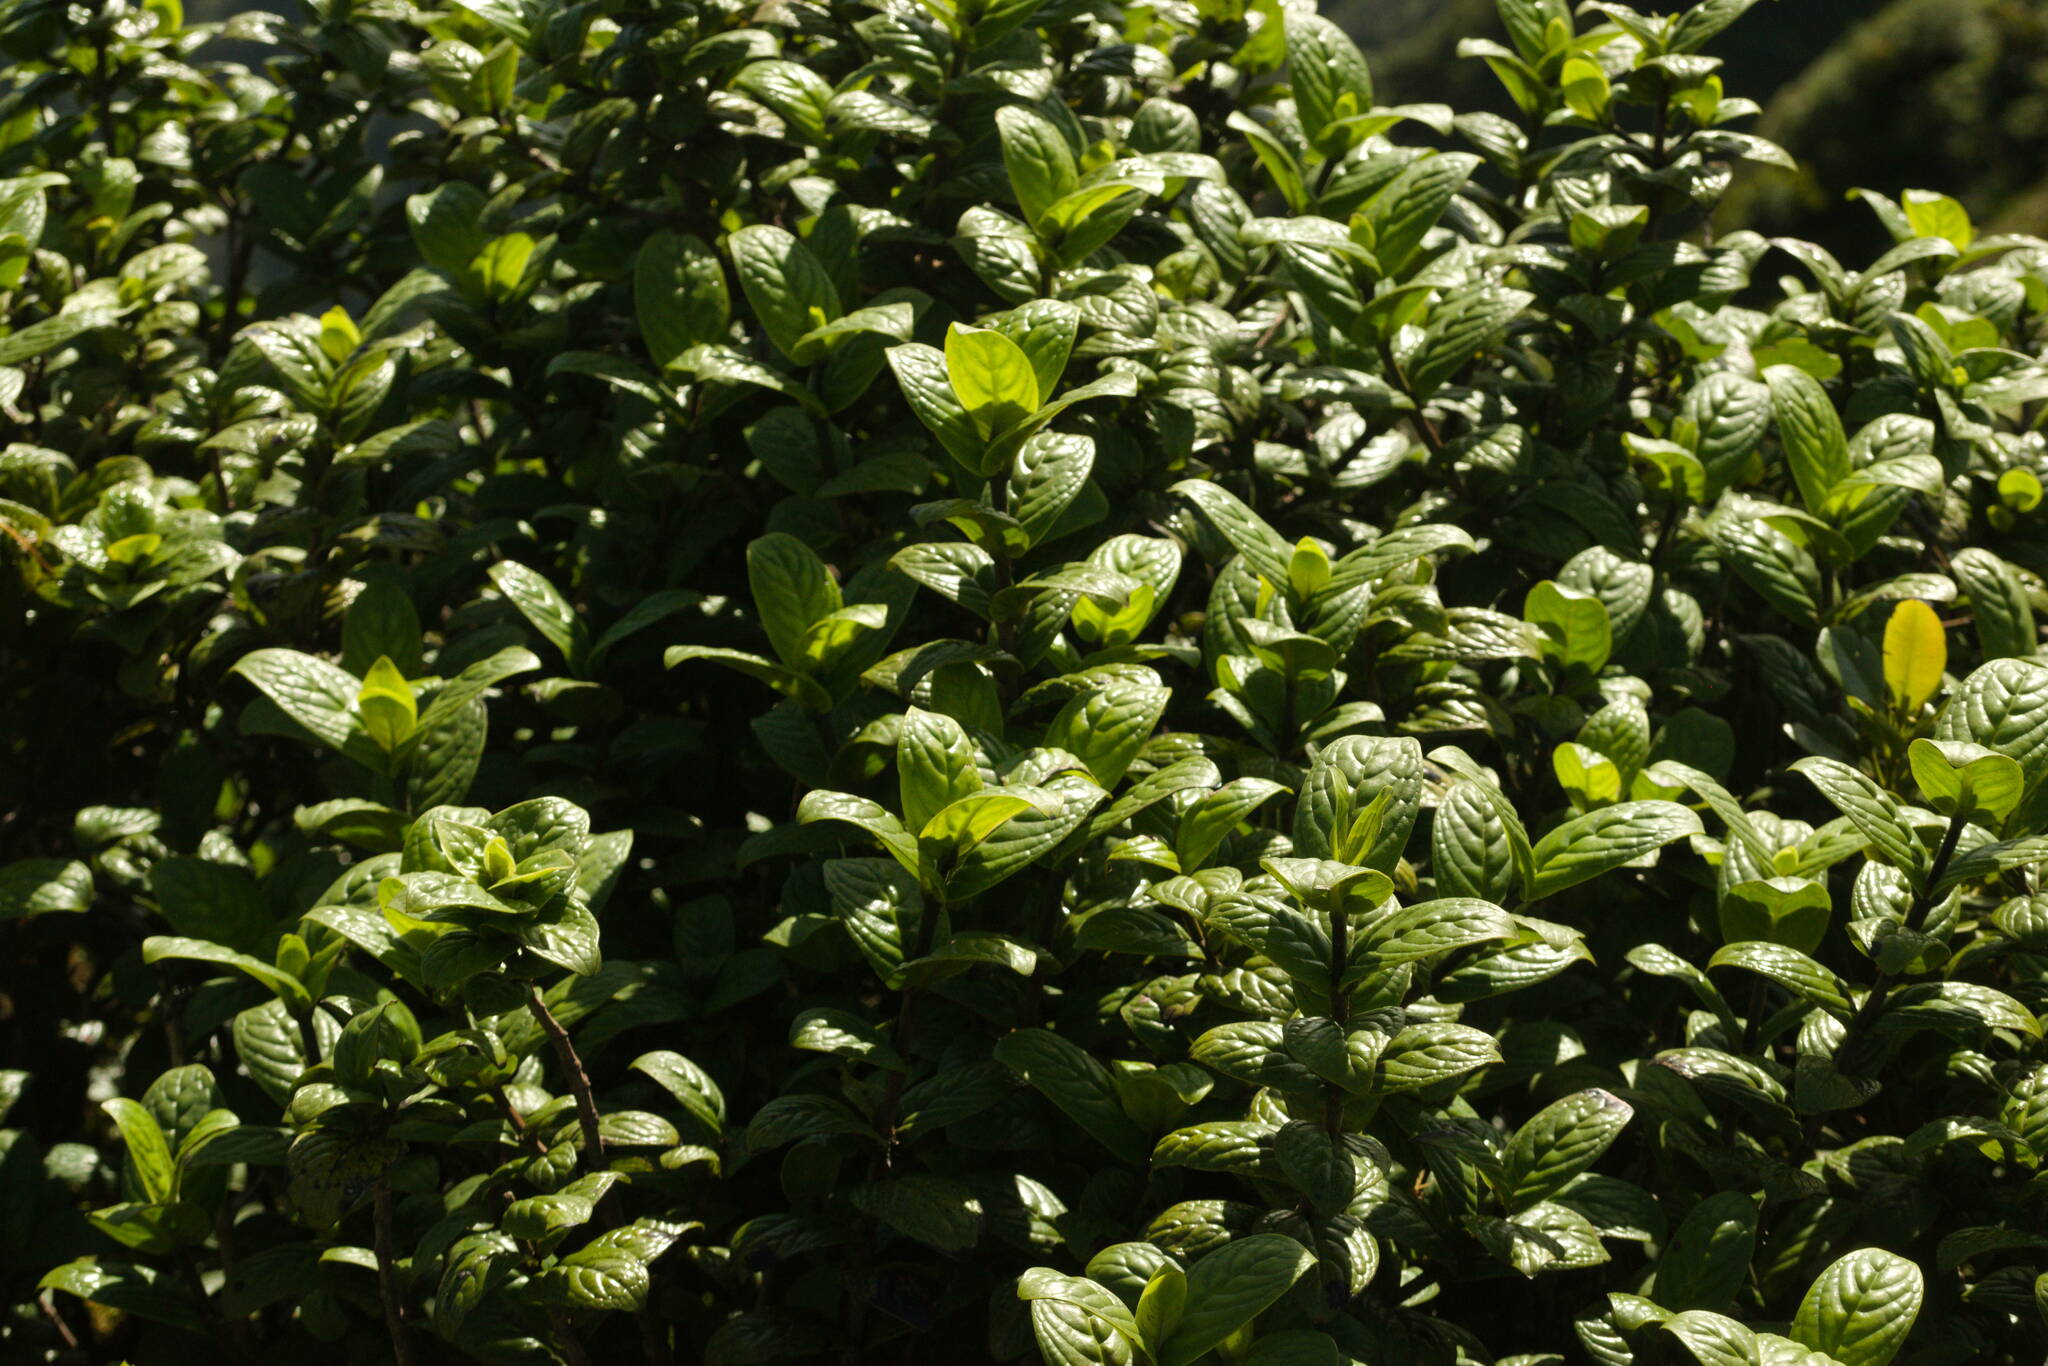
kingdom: Plantae
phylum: Tracheophyta
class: Magnoliopsida
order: Gentianales
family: Rubiaceae
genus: Kadua
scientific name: Kadua munroi
